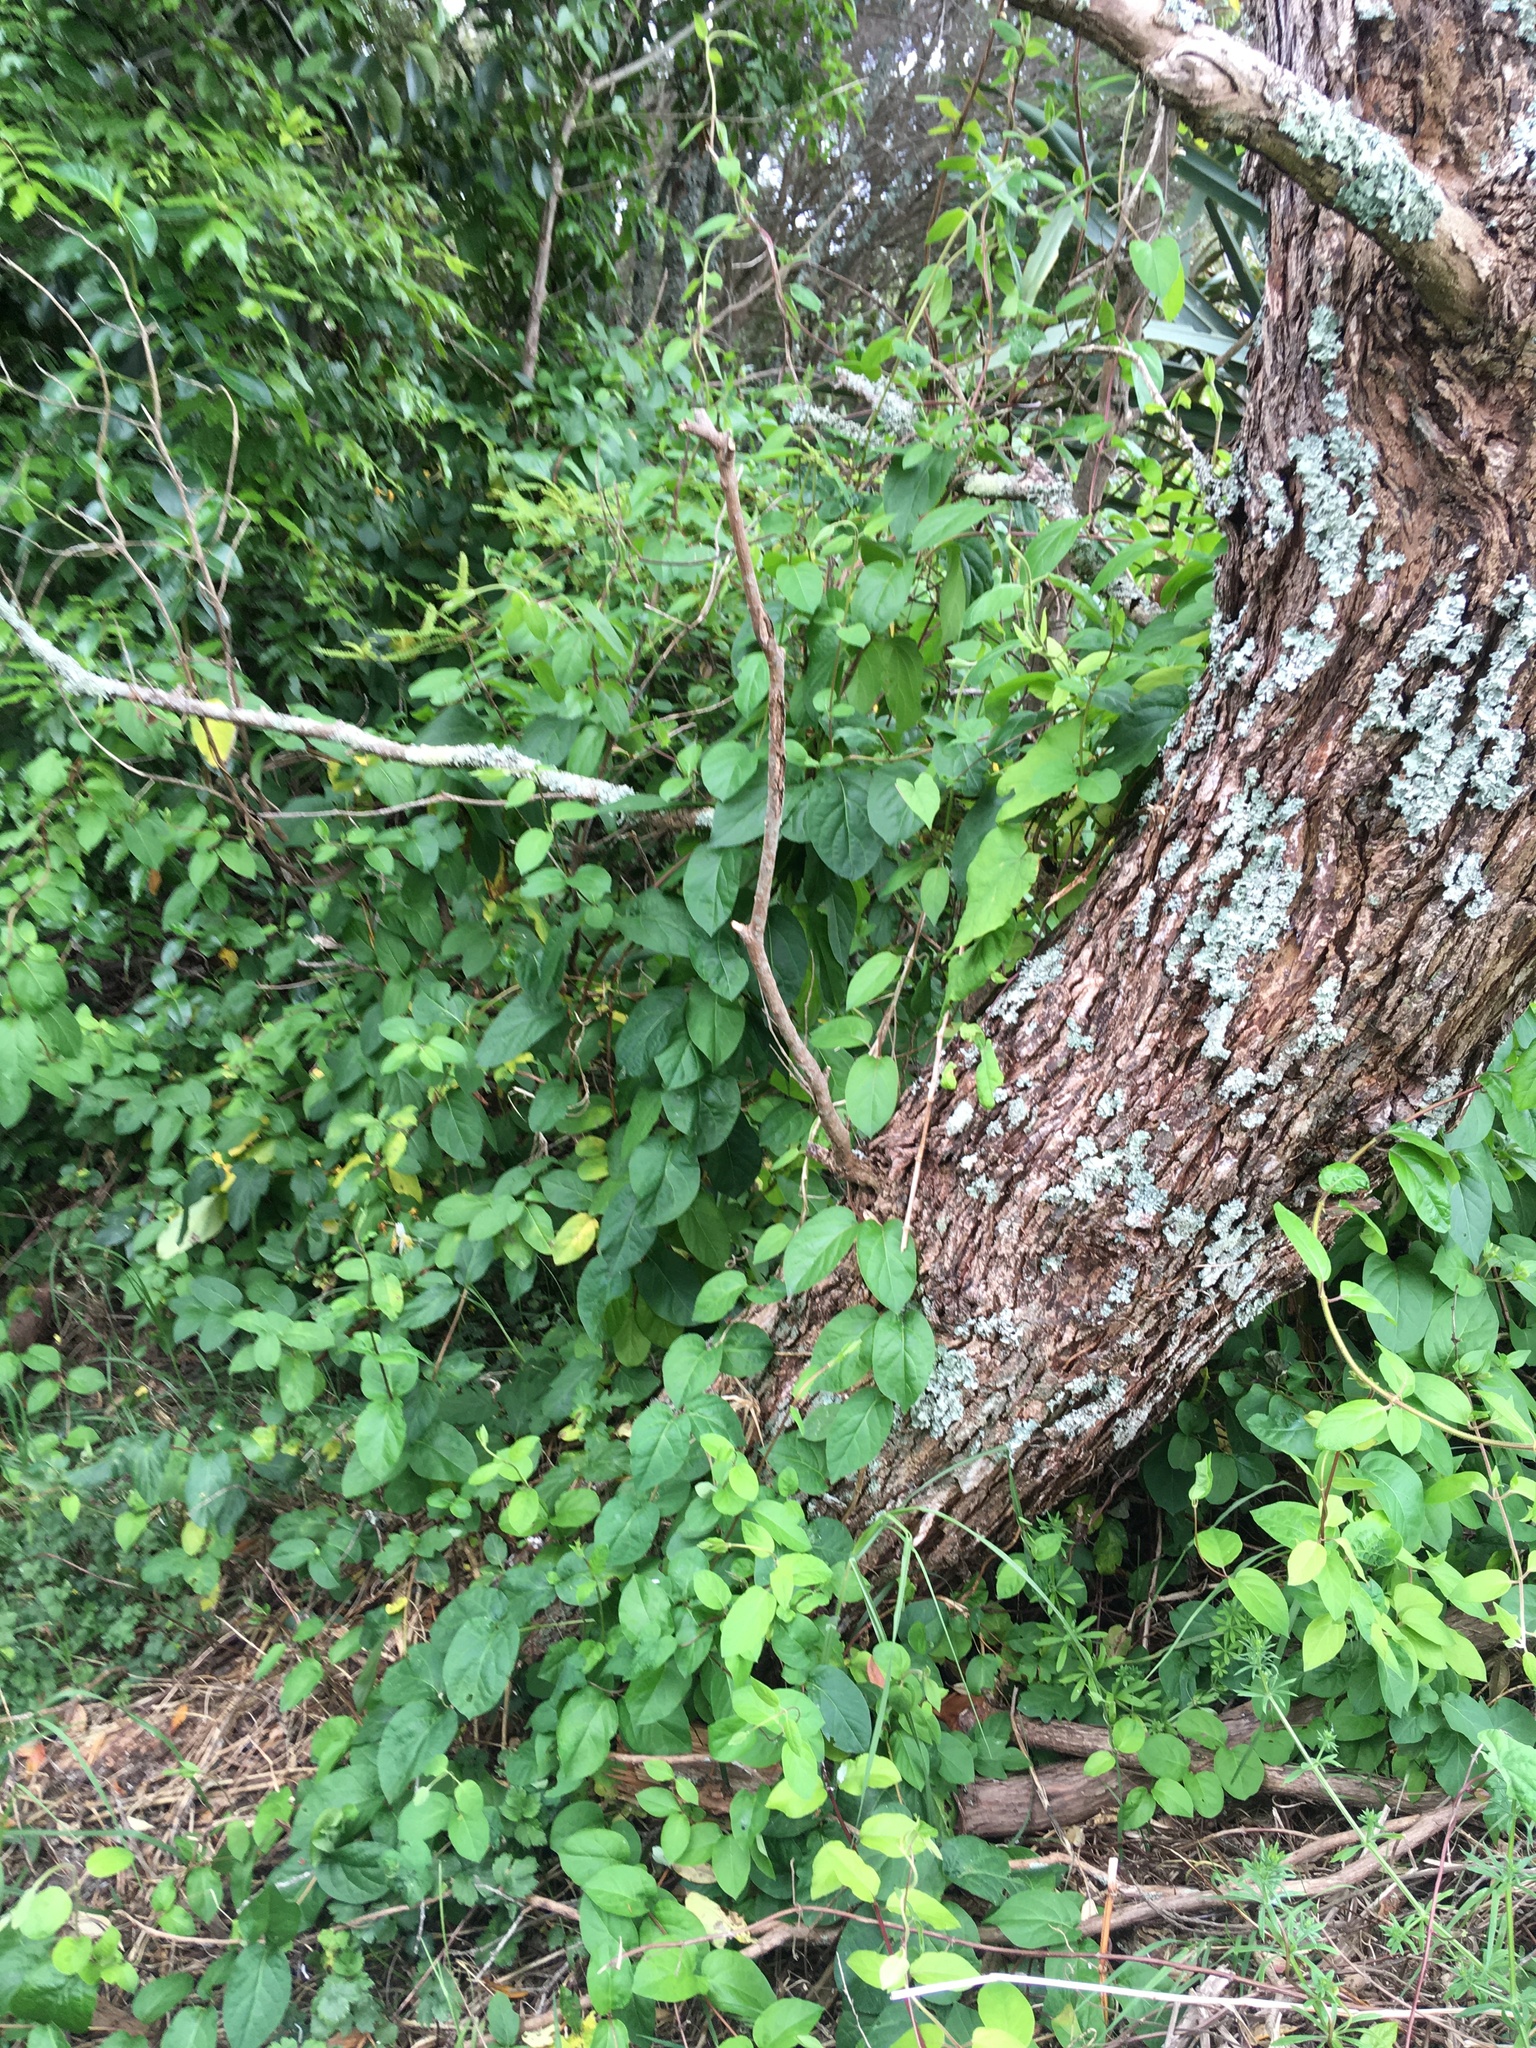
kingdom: Plantae
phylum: Tracheophyta
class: Magnoliopsida
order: Dipsacales
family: Caprifoliaceae
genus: Lonicera
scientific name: Lonicera japonica
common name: Japanese honeysuckle
